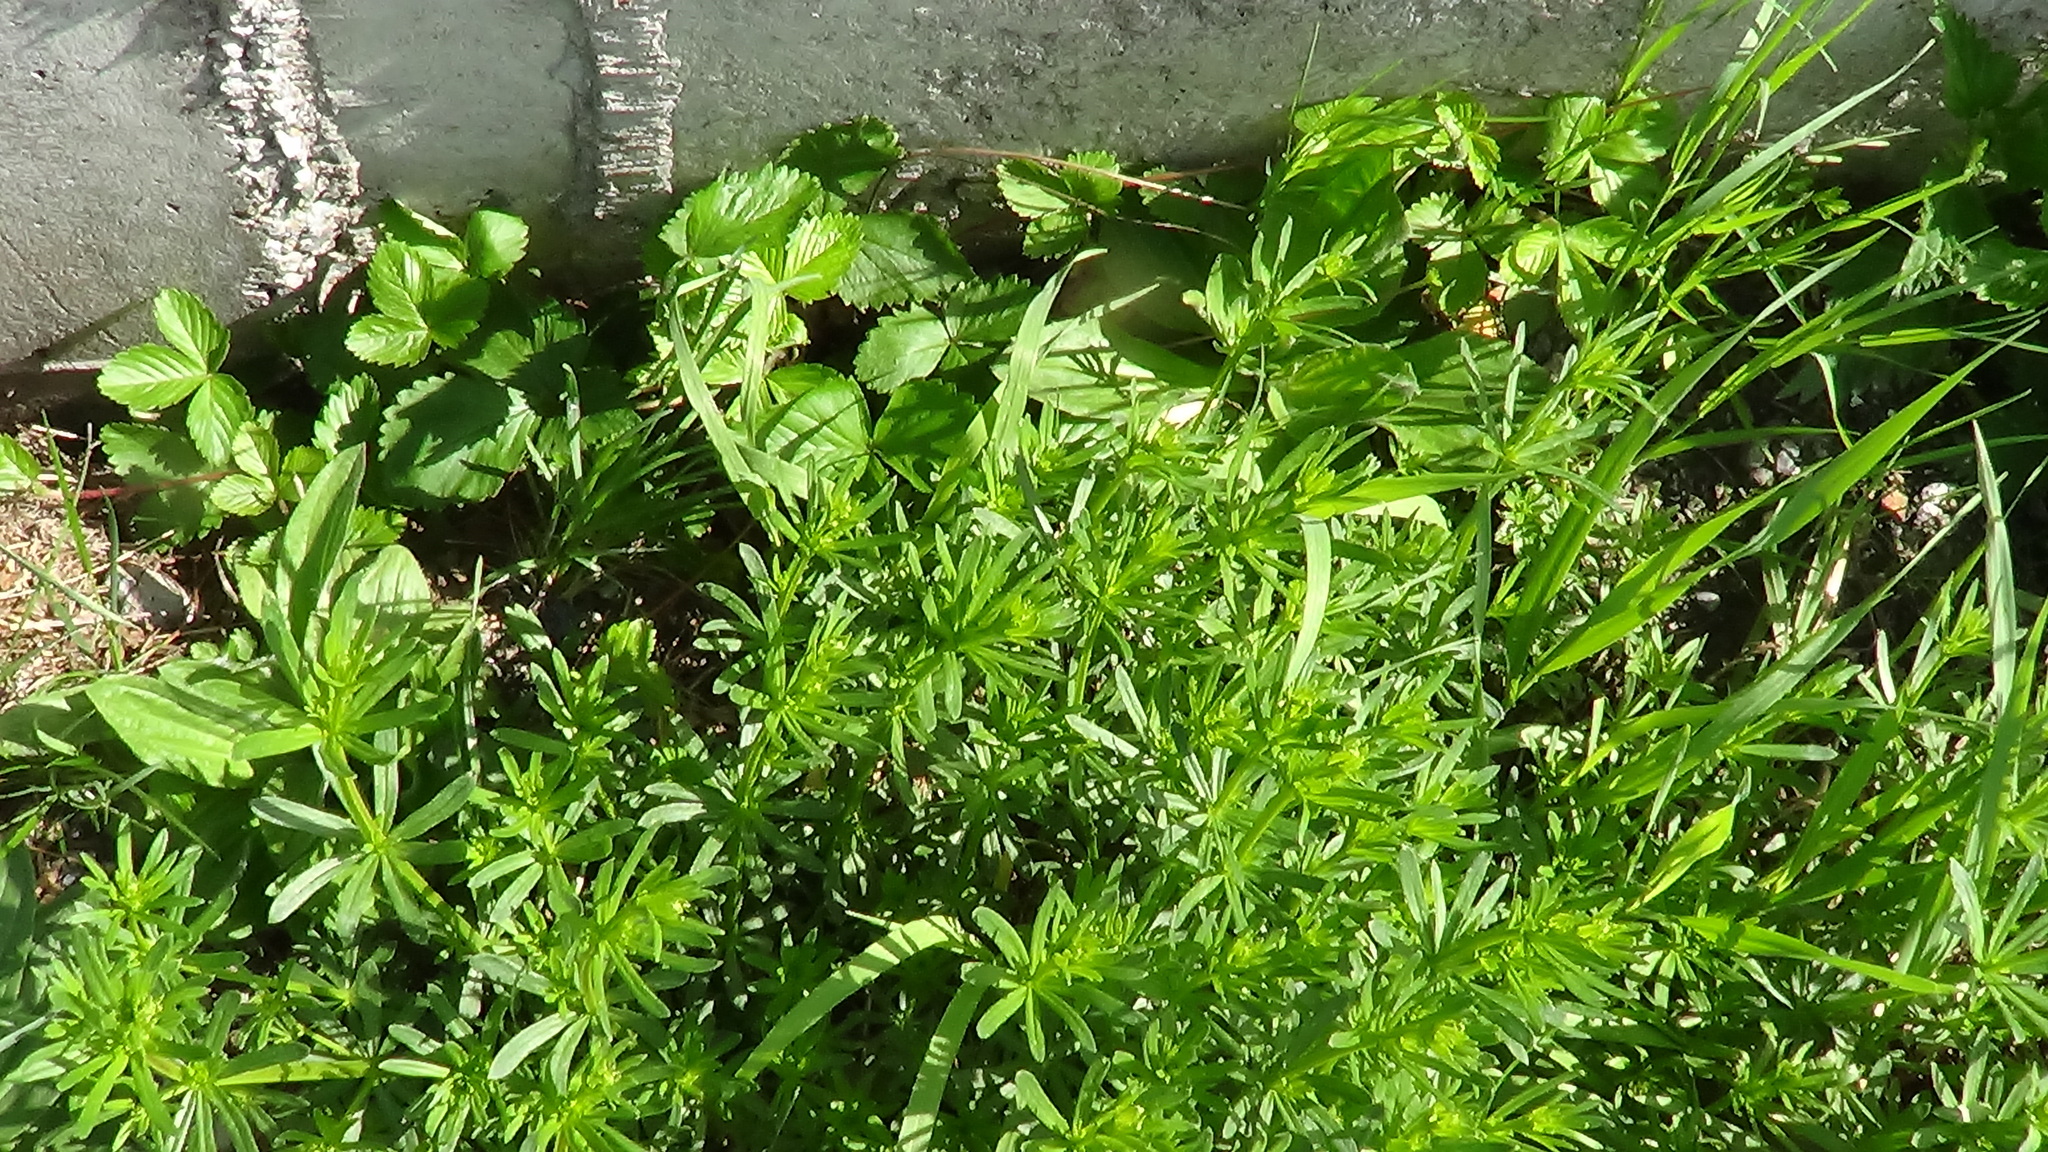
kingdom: Plantae
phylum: Tracheophyta
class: Magnoliopsida
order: Gentianales
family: Rubiaceae
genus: Galium
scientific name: Galium mollugo
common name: Hedge bedstraw
